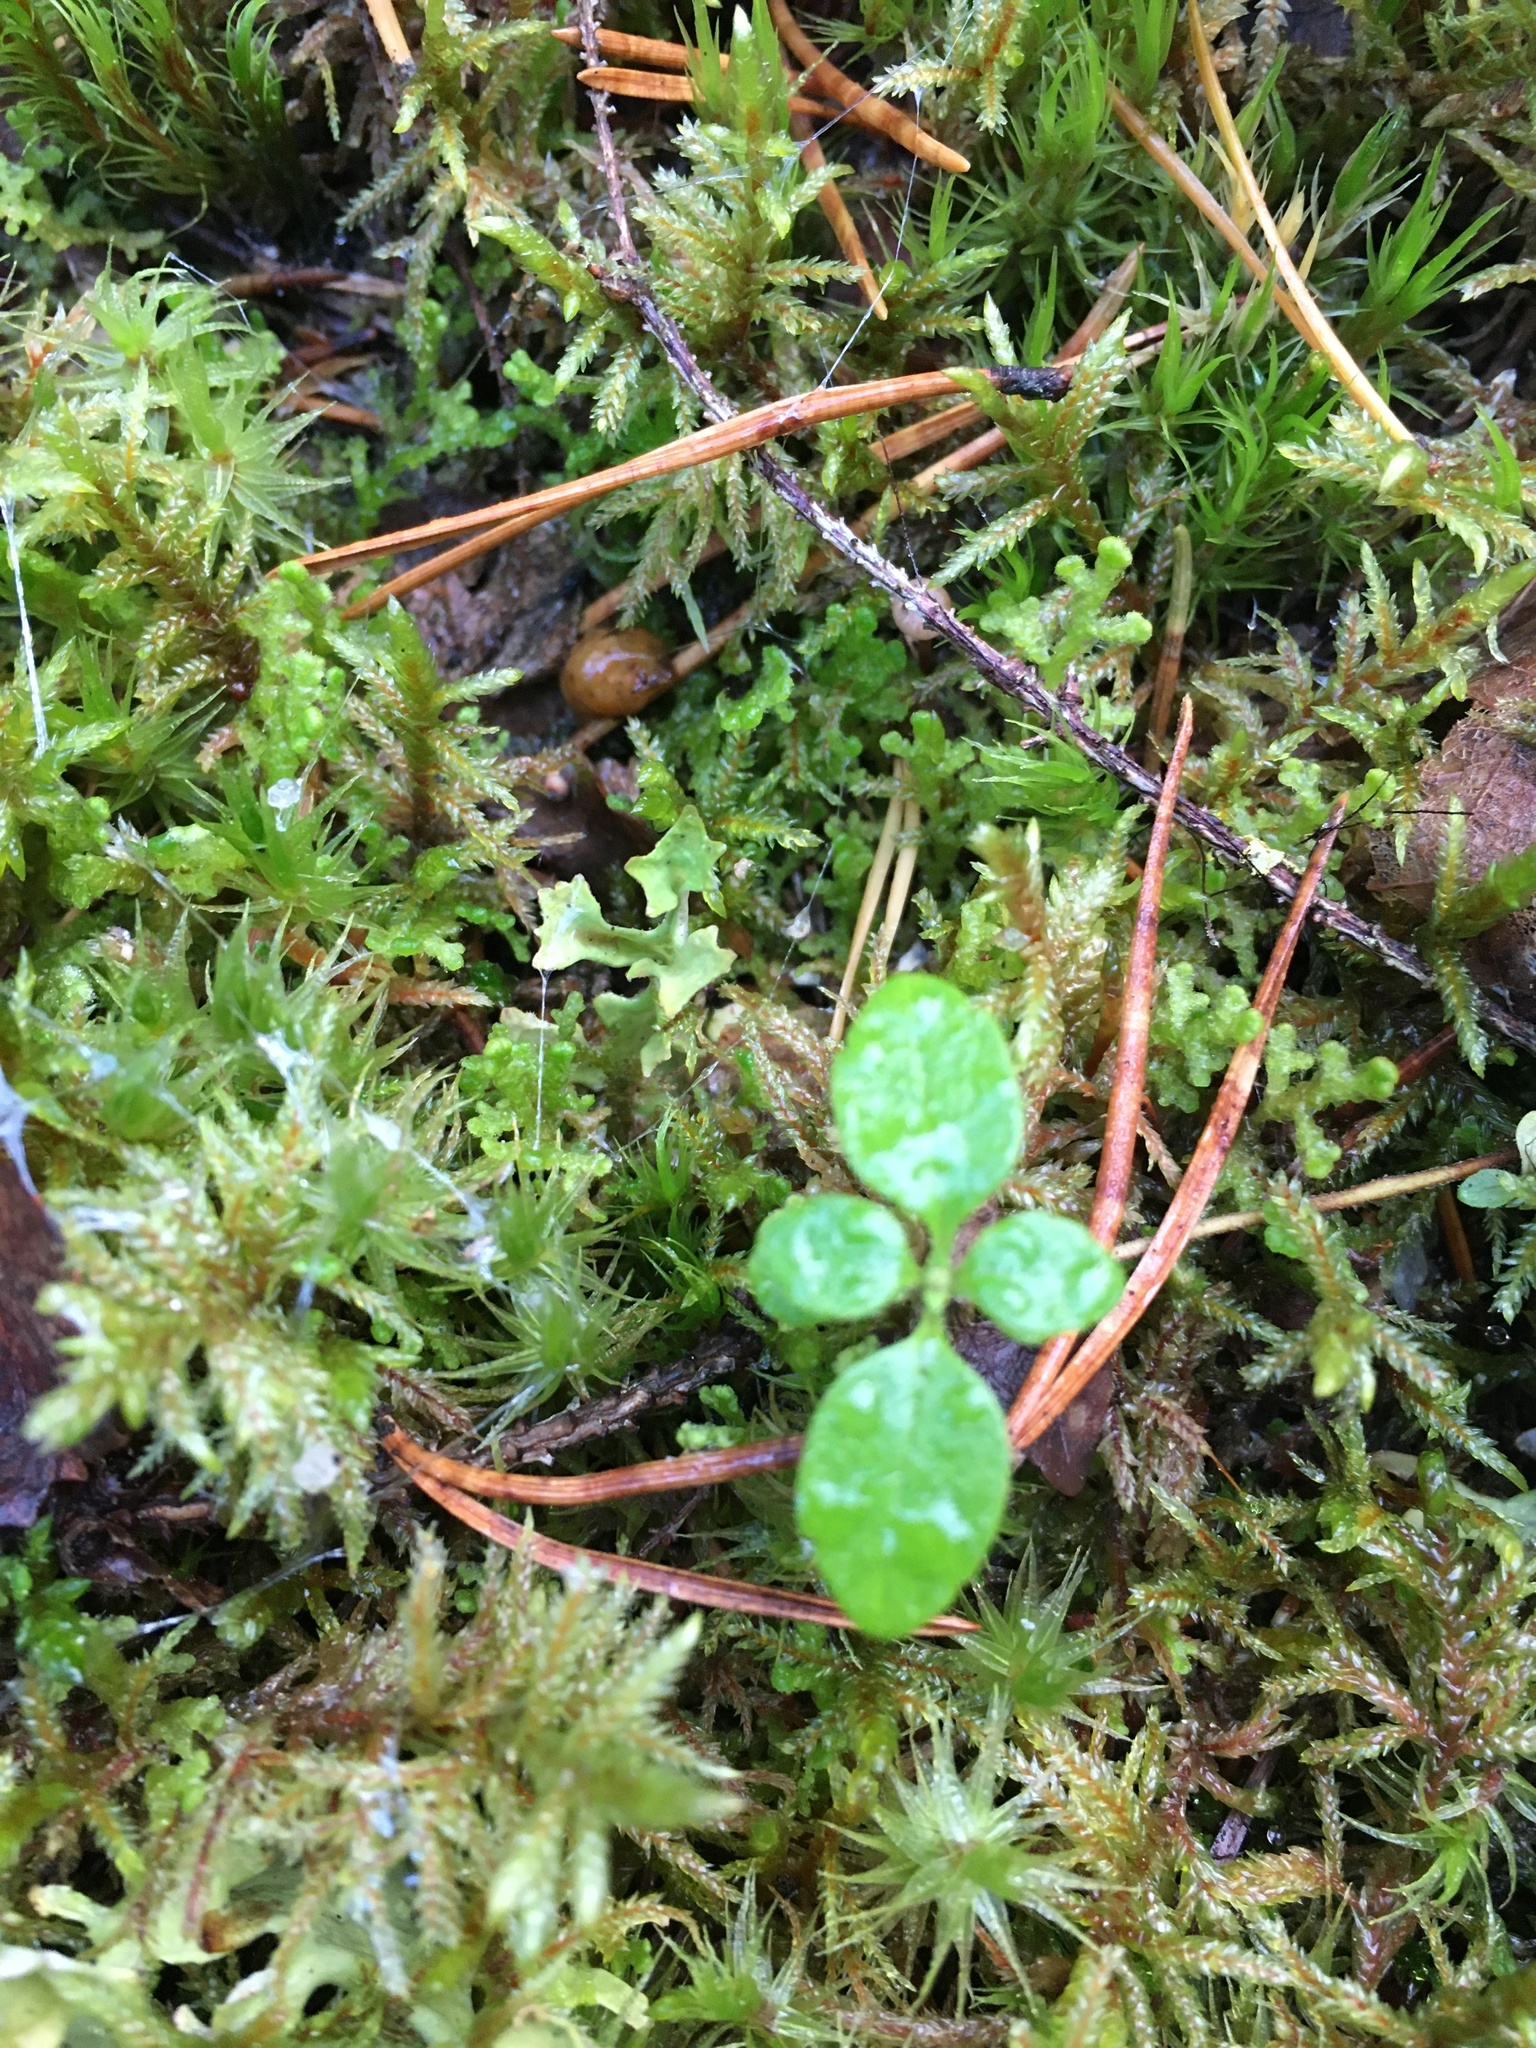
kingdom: Plantae
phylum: Tracheophyta
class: Magnoliopsida
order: Dipsacales
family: Caprifoliaceae
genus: Linnaea
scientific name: Linnaea borealis
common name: Twinflower
